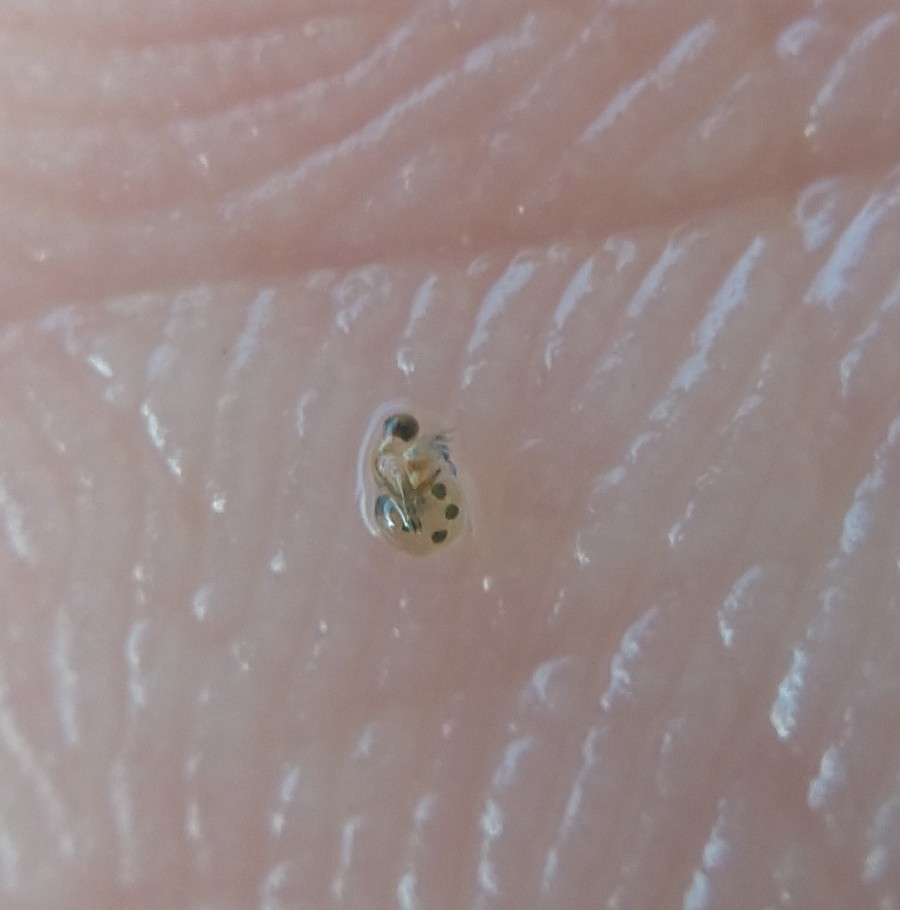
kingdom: Animalia
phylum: Arthropoda
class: Branchiopoda
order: Diplostraca
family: Polyphemidae
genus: Polyphemus
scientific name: Polyphemus pediculus
